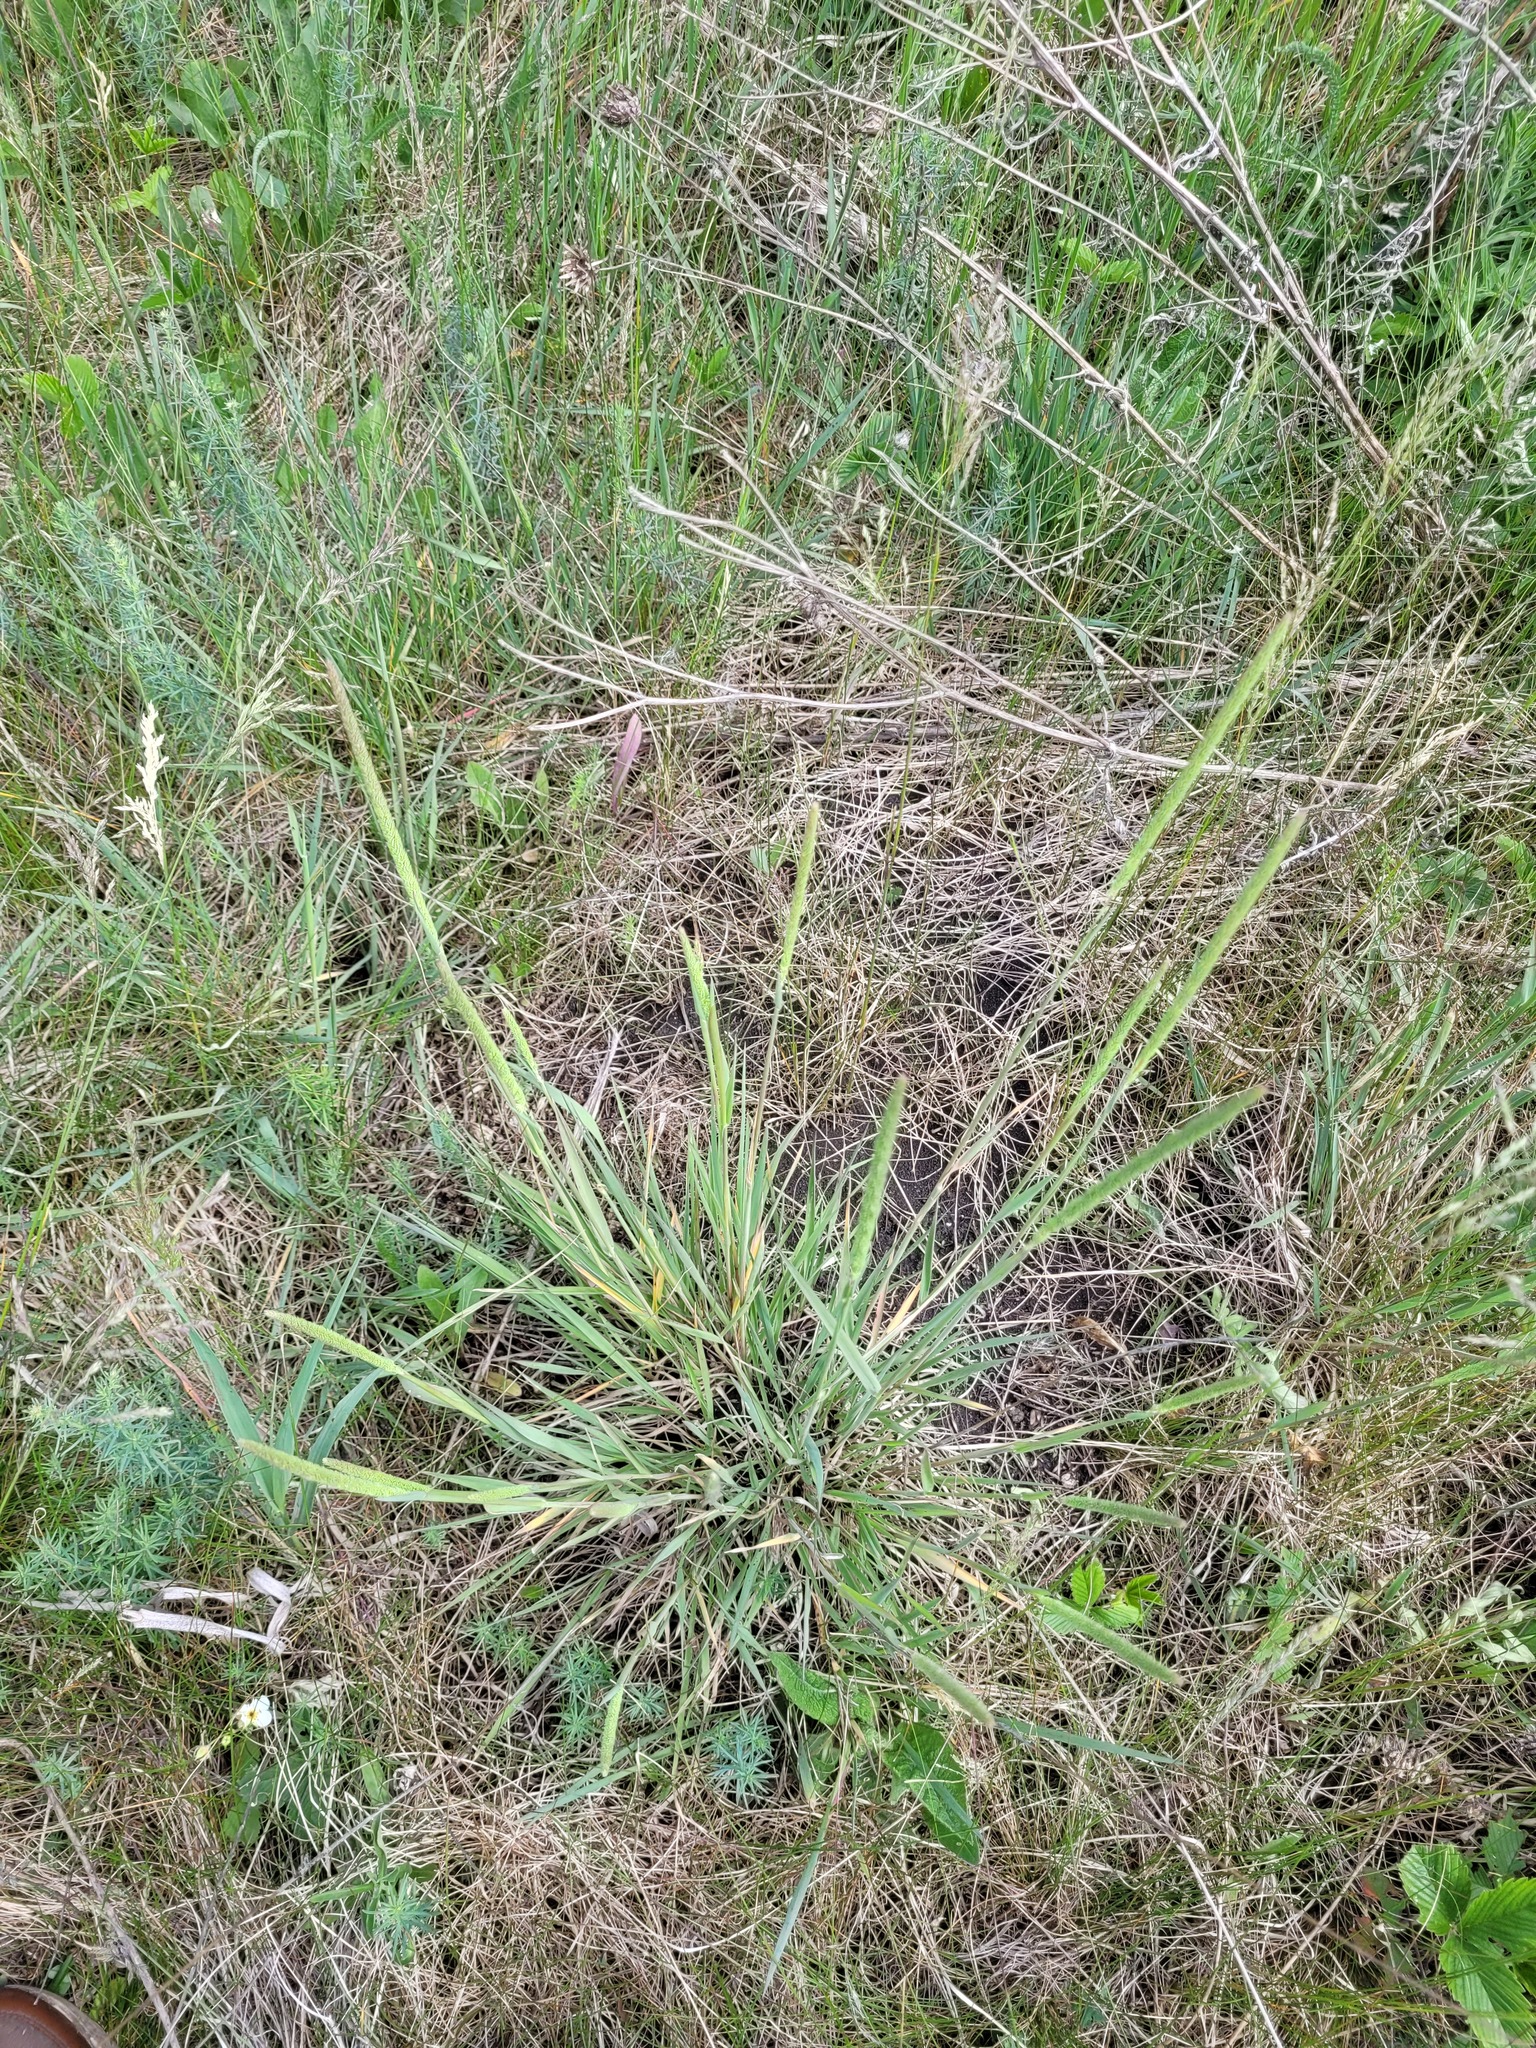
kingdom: Plantae
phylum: Tracheophyta
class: Liliopsida
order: Poales
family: Poaceae
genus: Phleum
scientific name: Phleum phleoides
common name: Purple-stem cat's-tail
